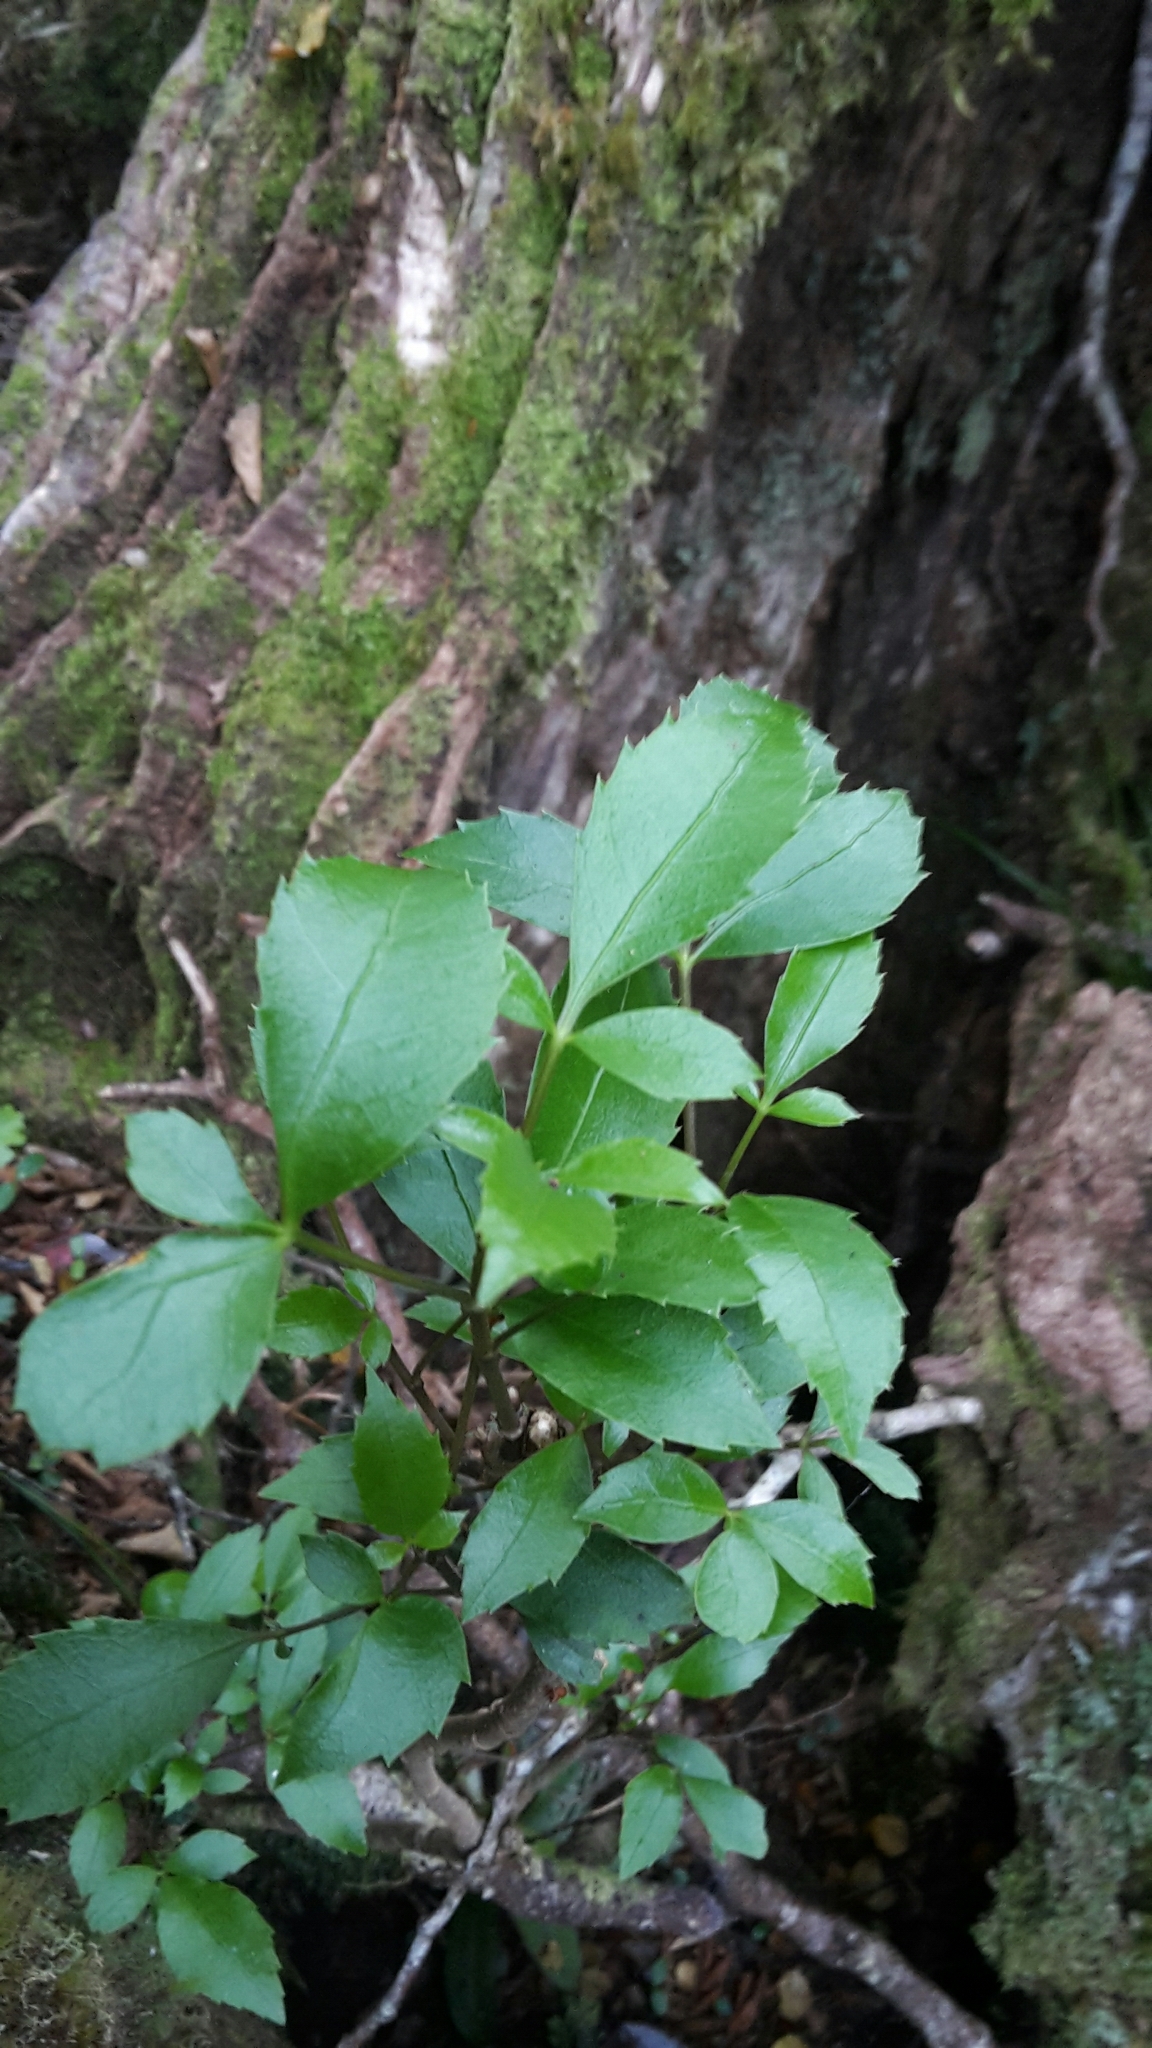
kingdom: Plantae
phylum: Tracheophyta
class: Magnoliopsida
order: Apiales
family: Araliaceae
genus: Raukaua
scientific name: Raukaua simplex
